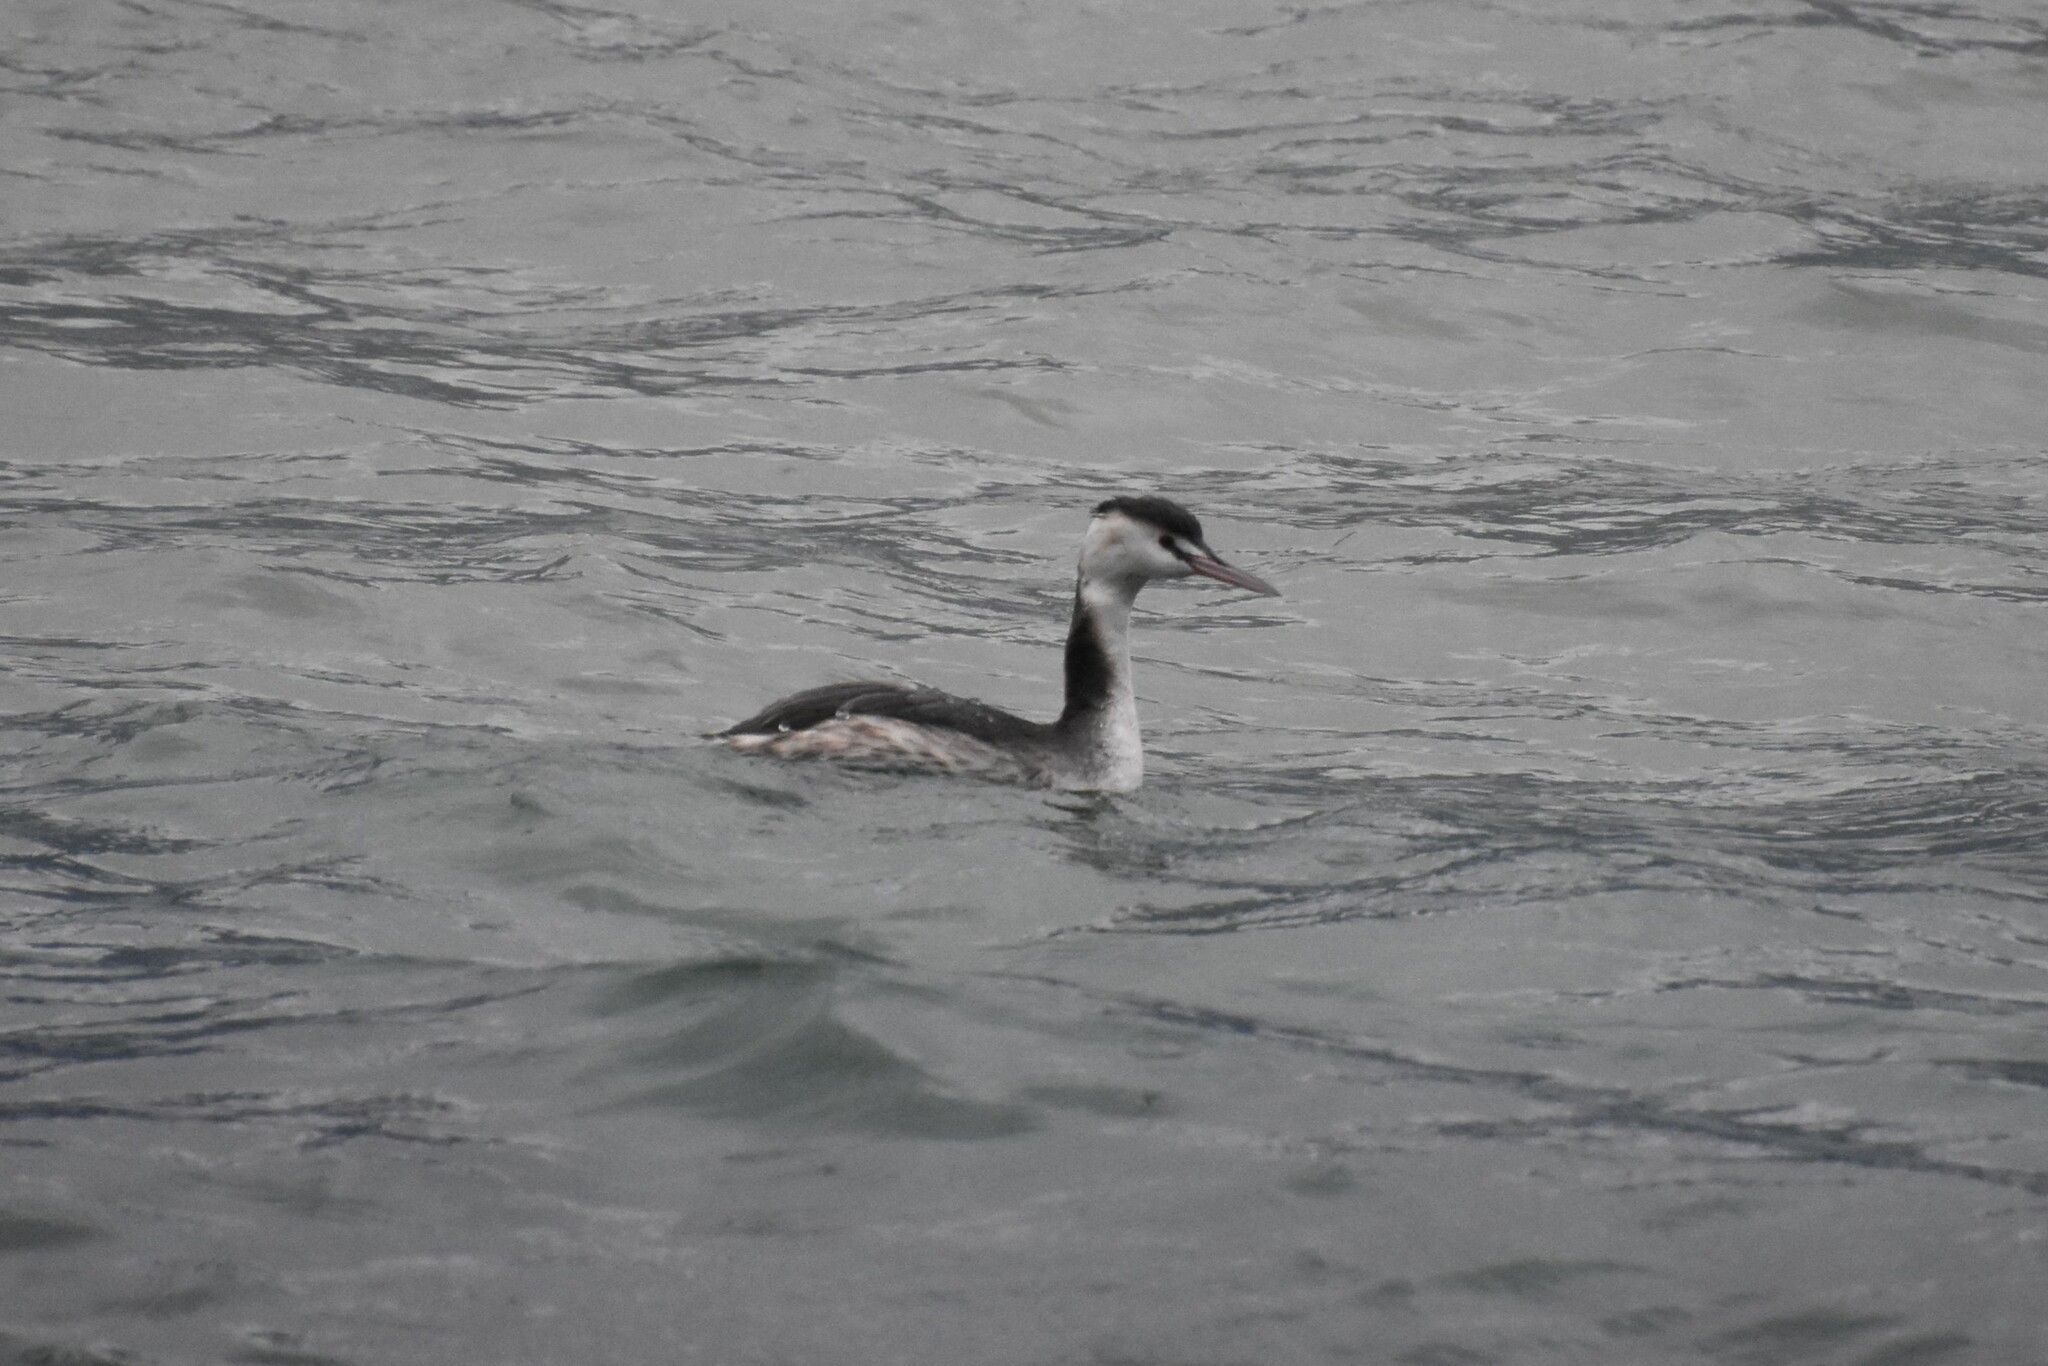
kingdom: Animalia
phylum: Chordata
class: Aves
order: Podicipediformes
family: Podicipedidae
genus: Podiceps
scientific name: Podiceps cristatus
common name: Great crested grebe
